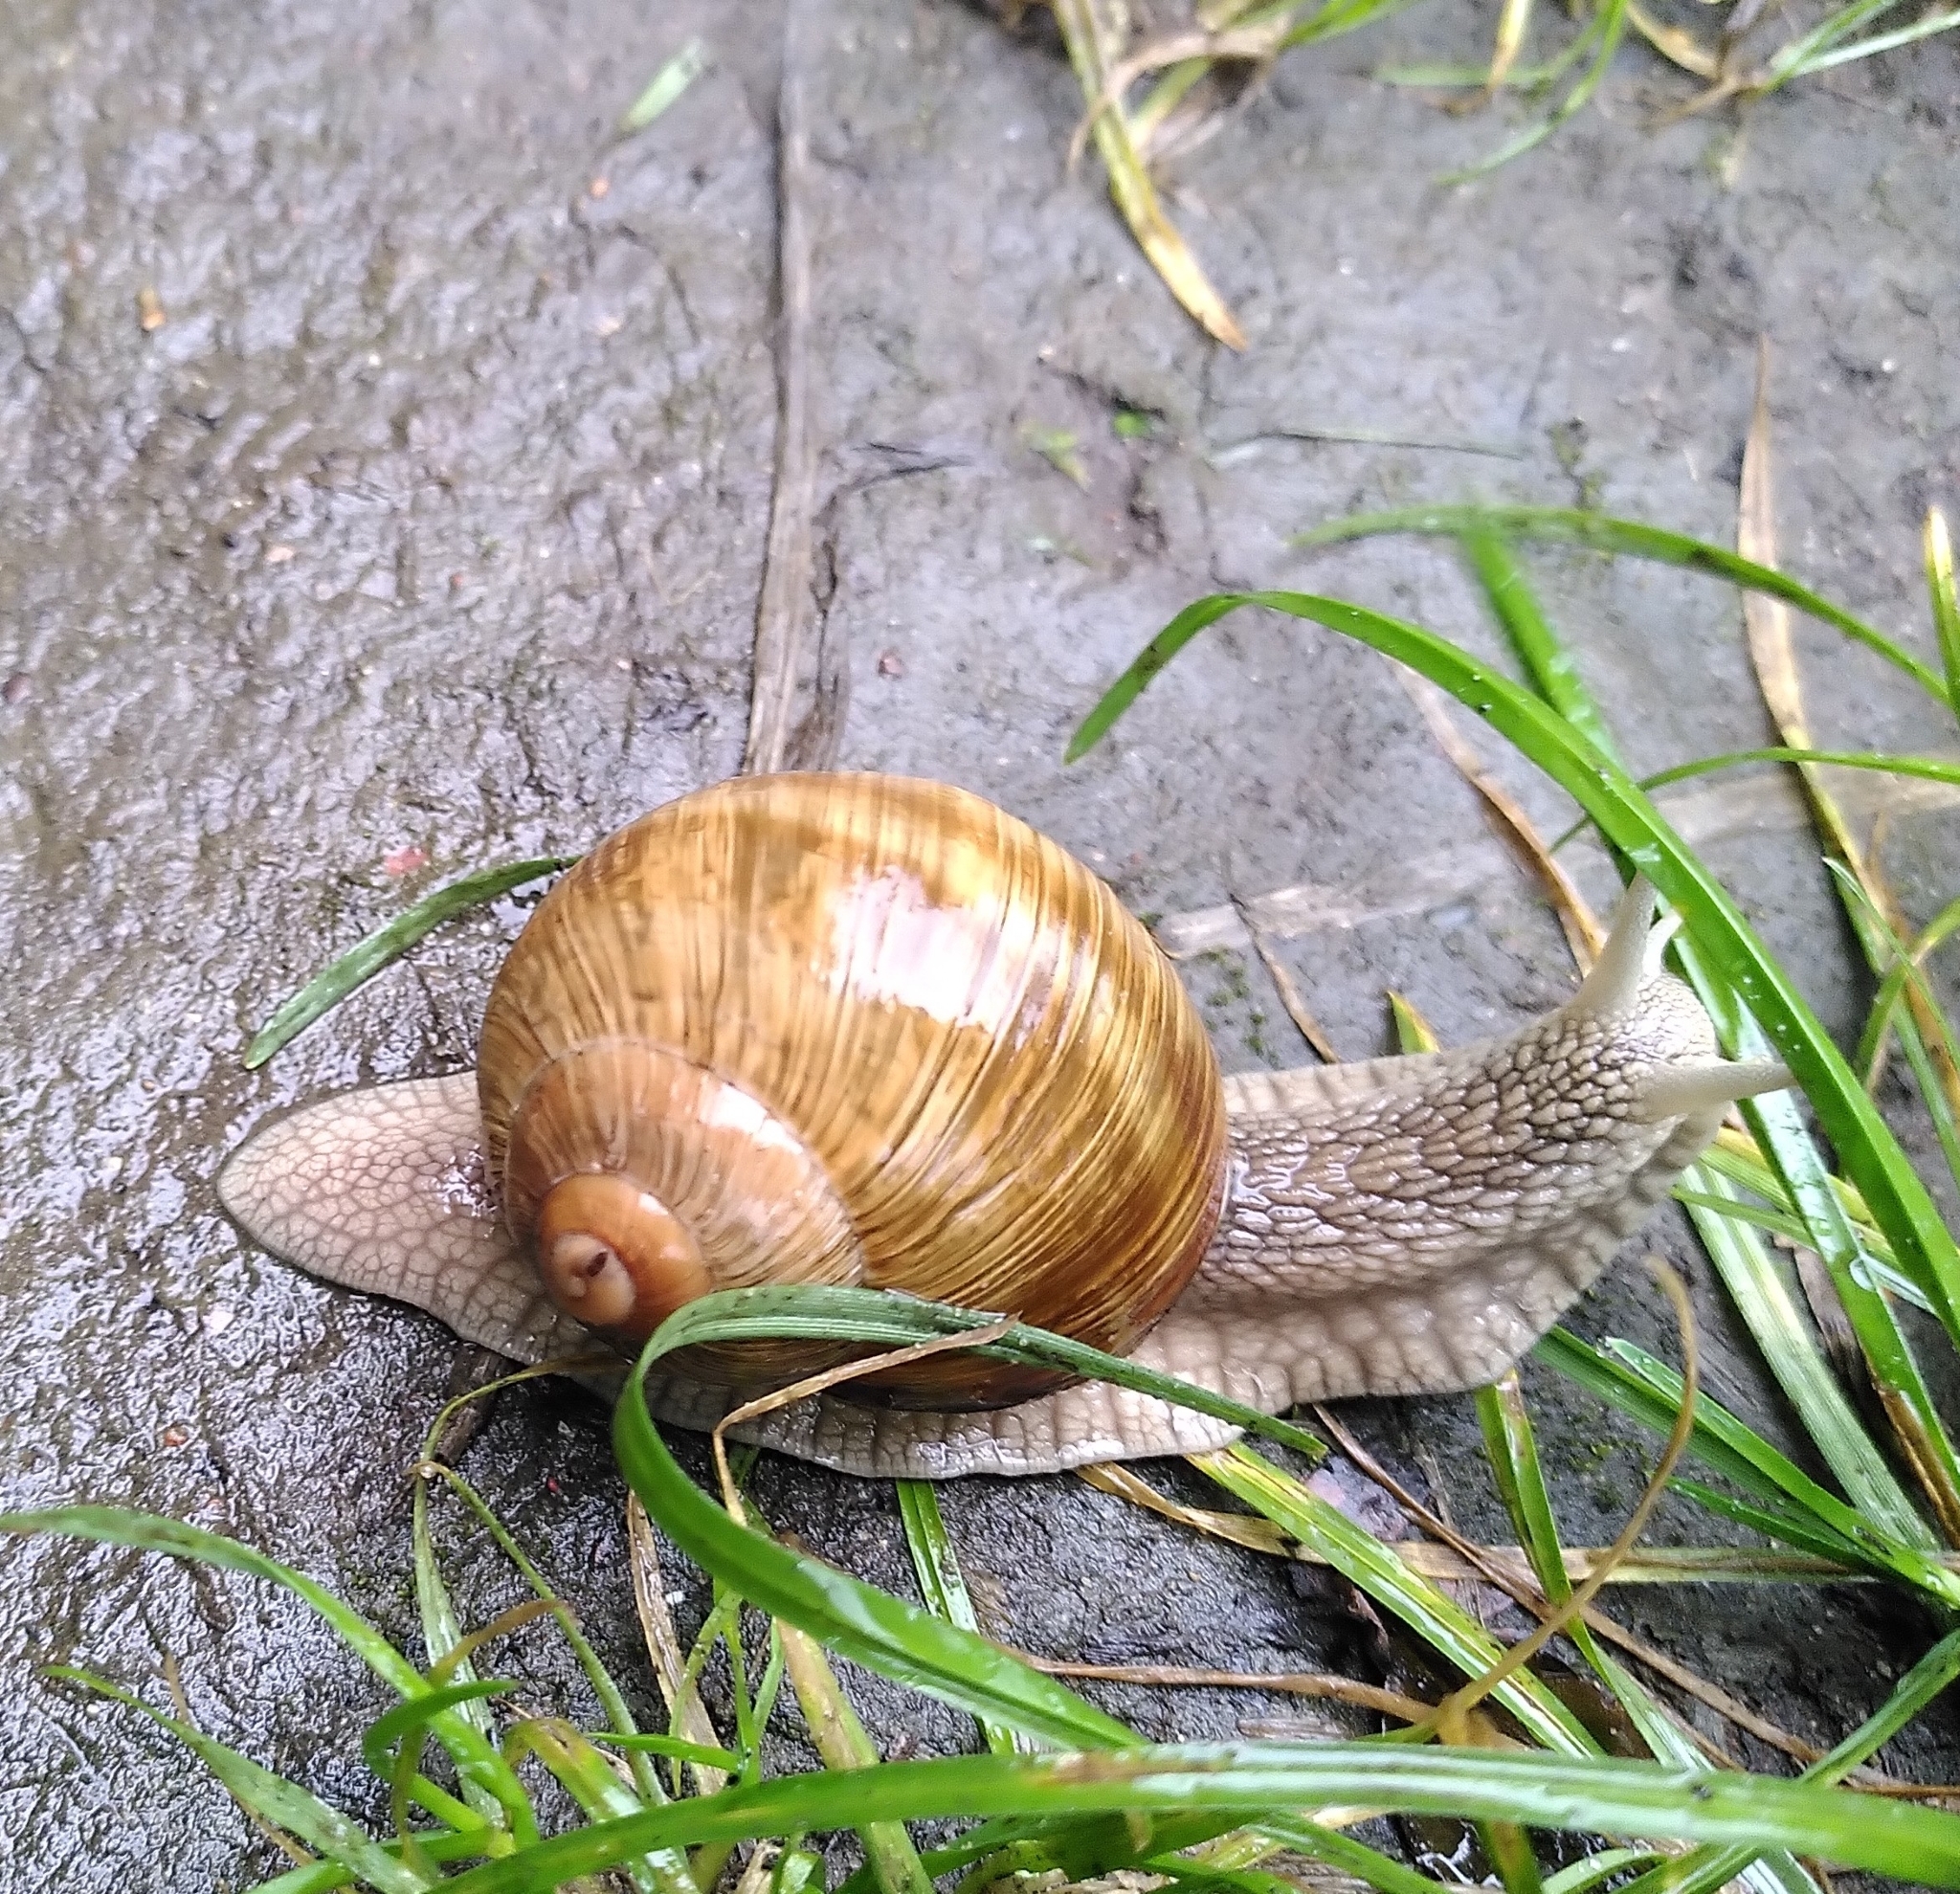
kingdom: Animalia
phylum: Mollusca
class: Gastropoda
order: Stylommatophora
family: Helicidae
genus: Helix
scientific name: Helix pomatia
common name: Roman snail
